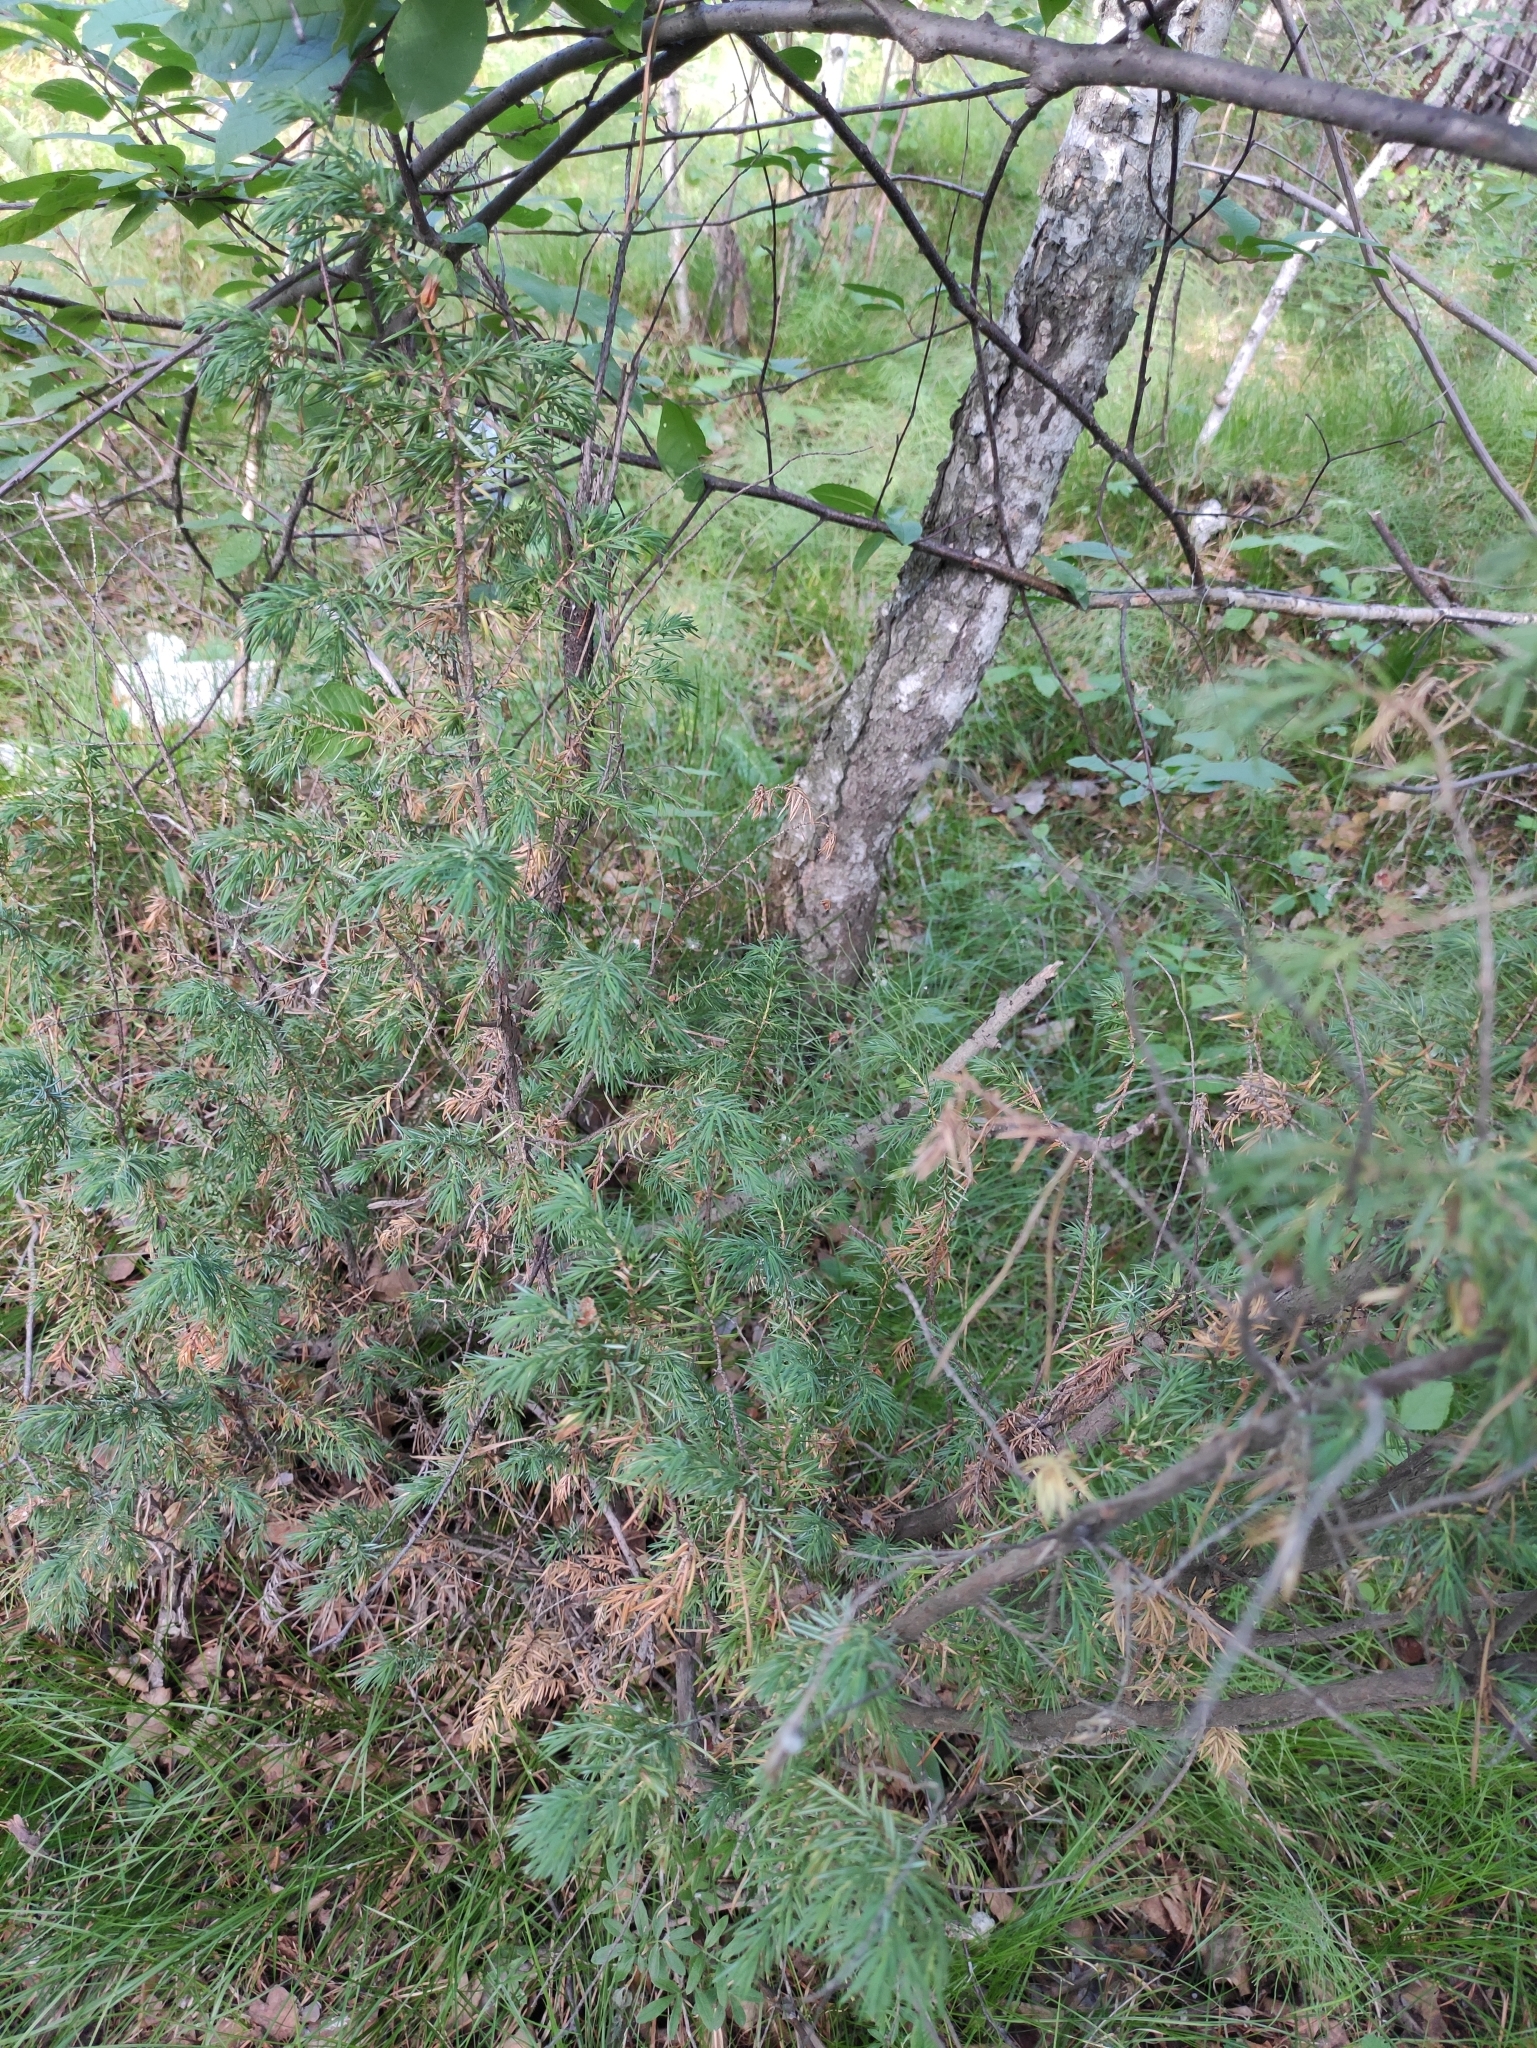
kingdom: Plantae
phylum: Tracheophyta
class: Pinopsida
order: Pinales
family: Cupressaceae
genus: Juniperus
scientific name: Juniperus communis
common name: Common juniper
